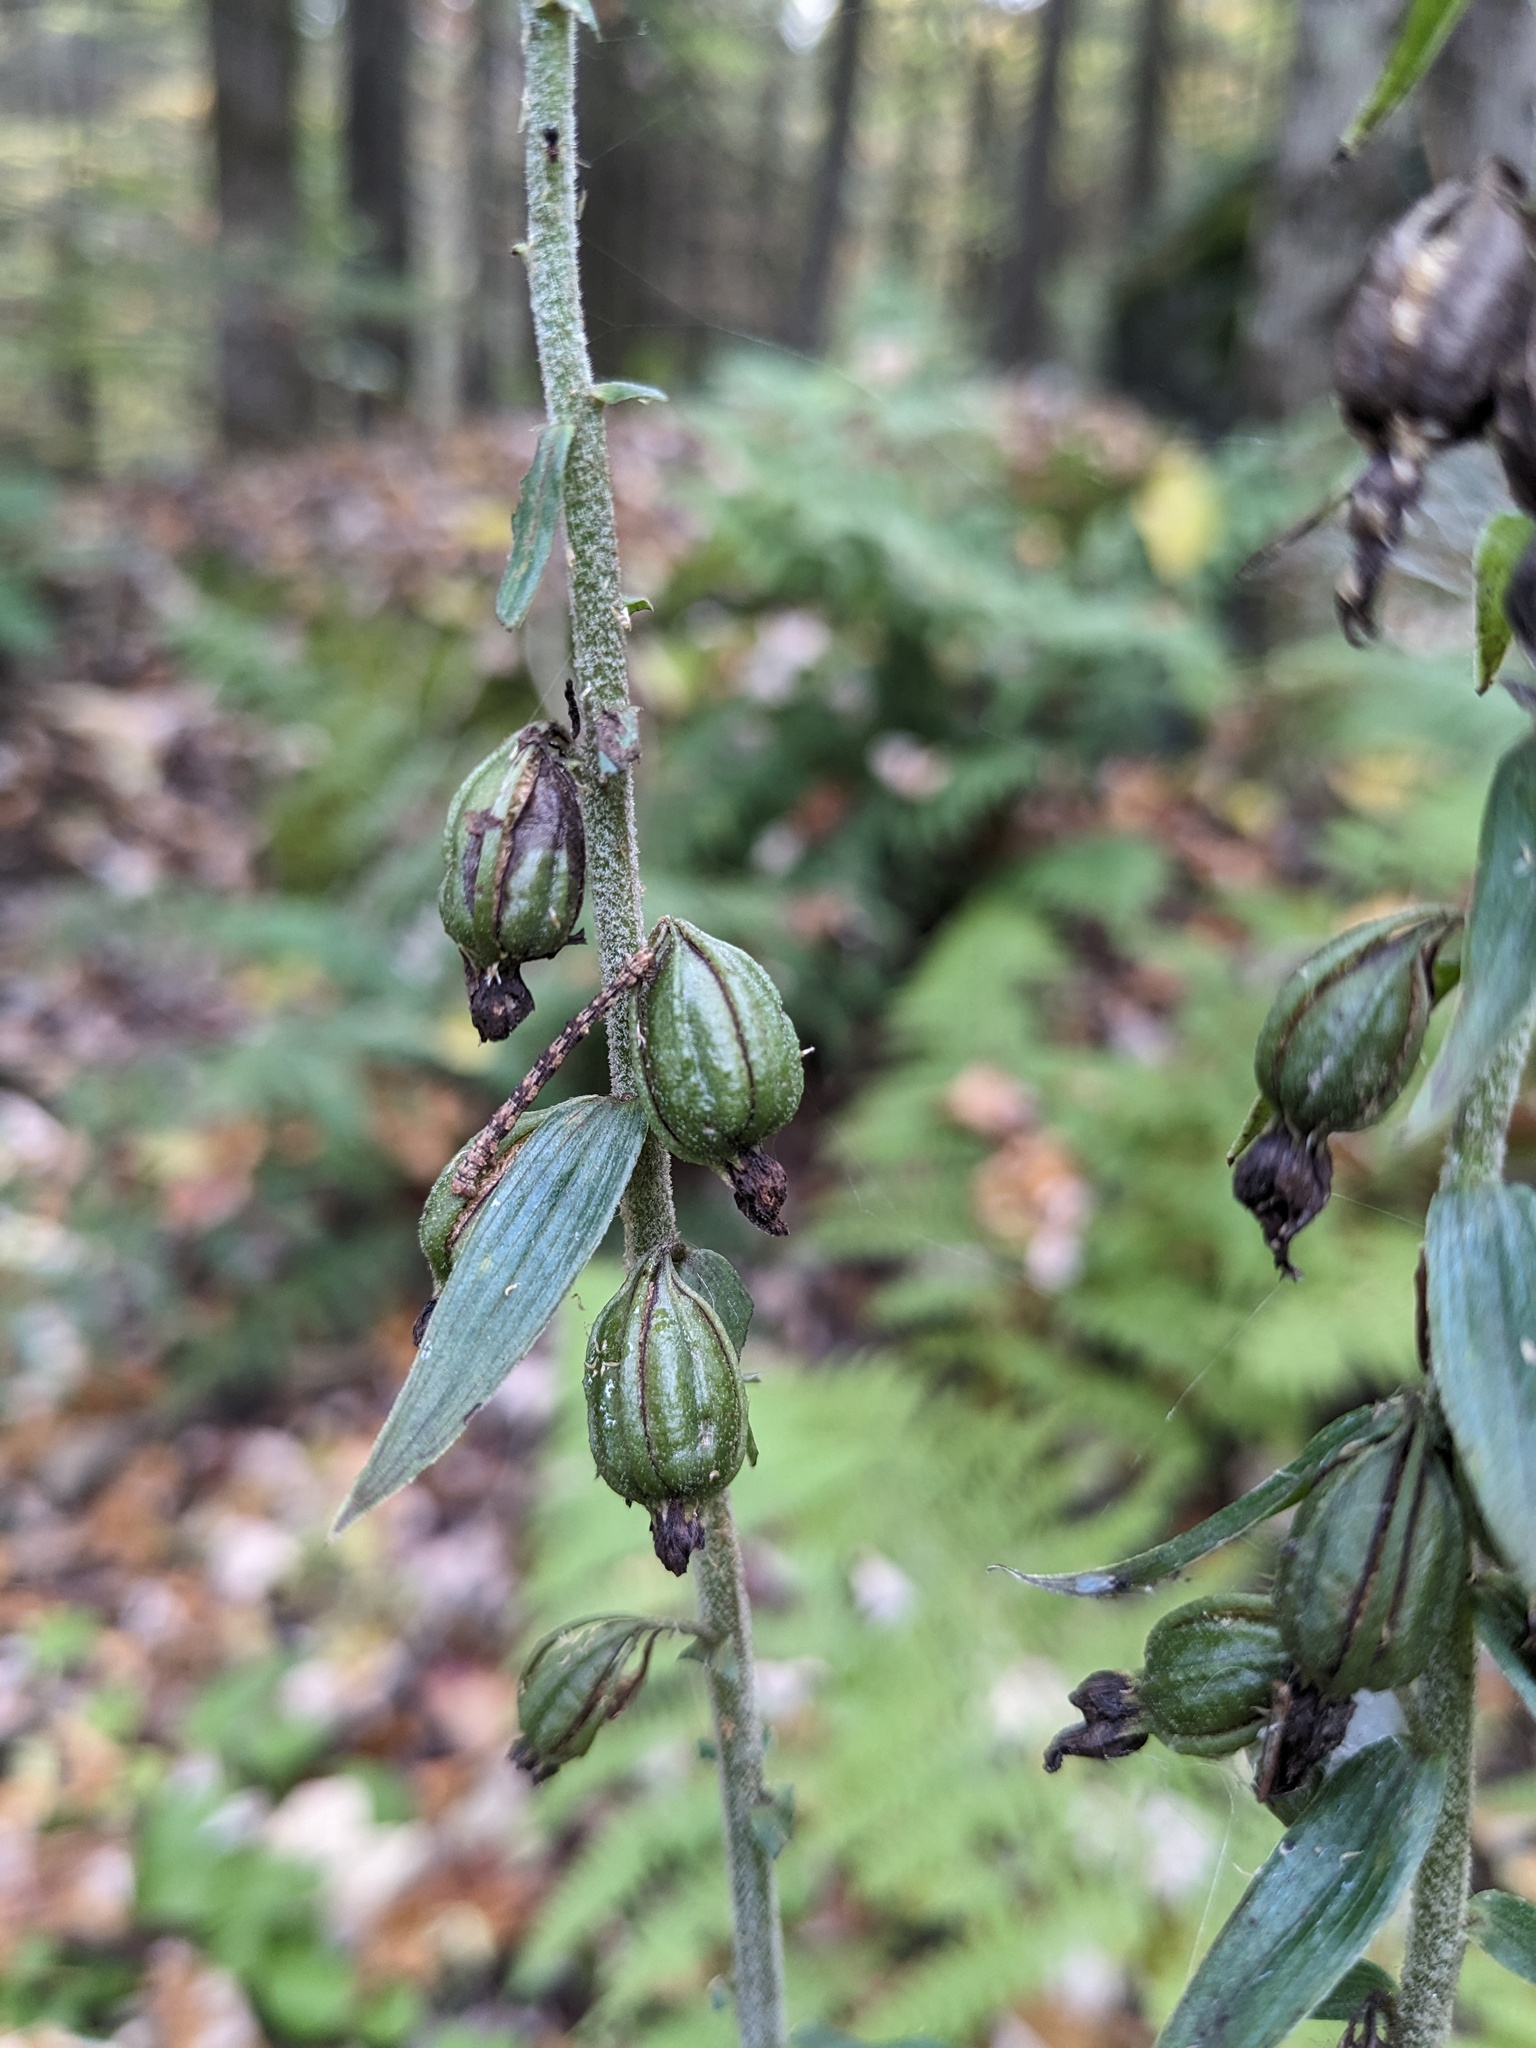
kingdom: Plantae
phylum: Tracheophyta
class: Liliopsida
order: Asparagales
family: Orchidaceae
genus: Epipactis
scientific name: Epipactis helleborine
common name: Broad-leaved helleborine
